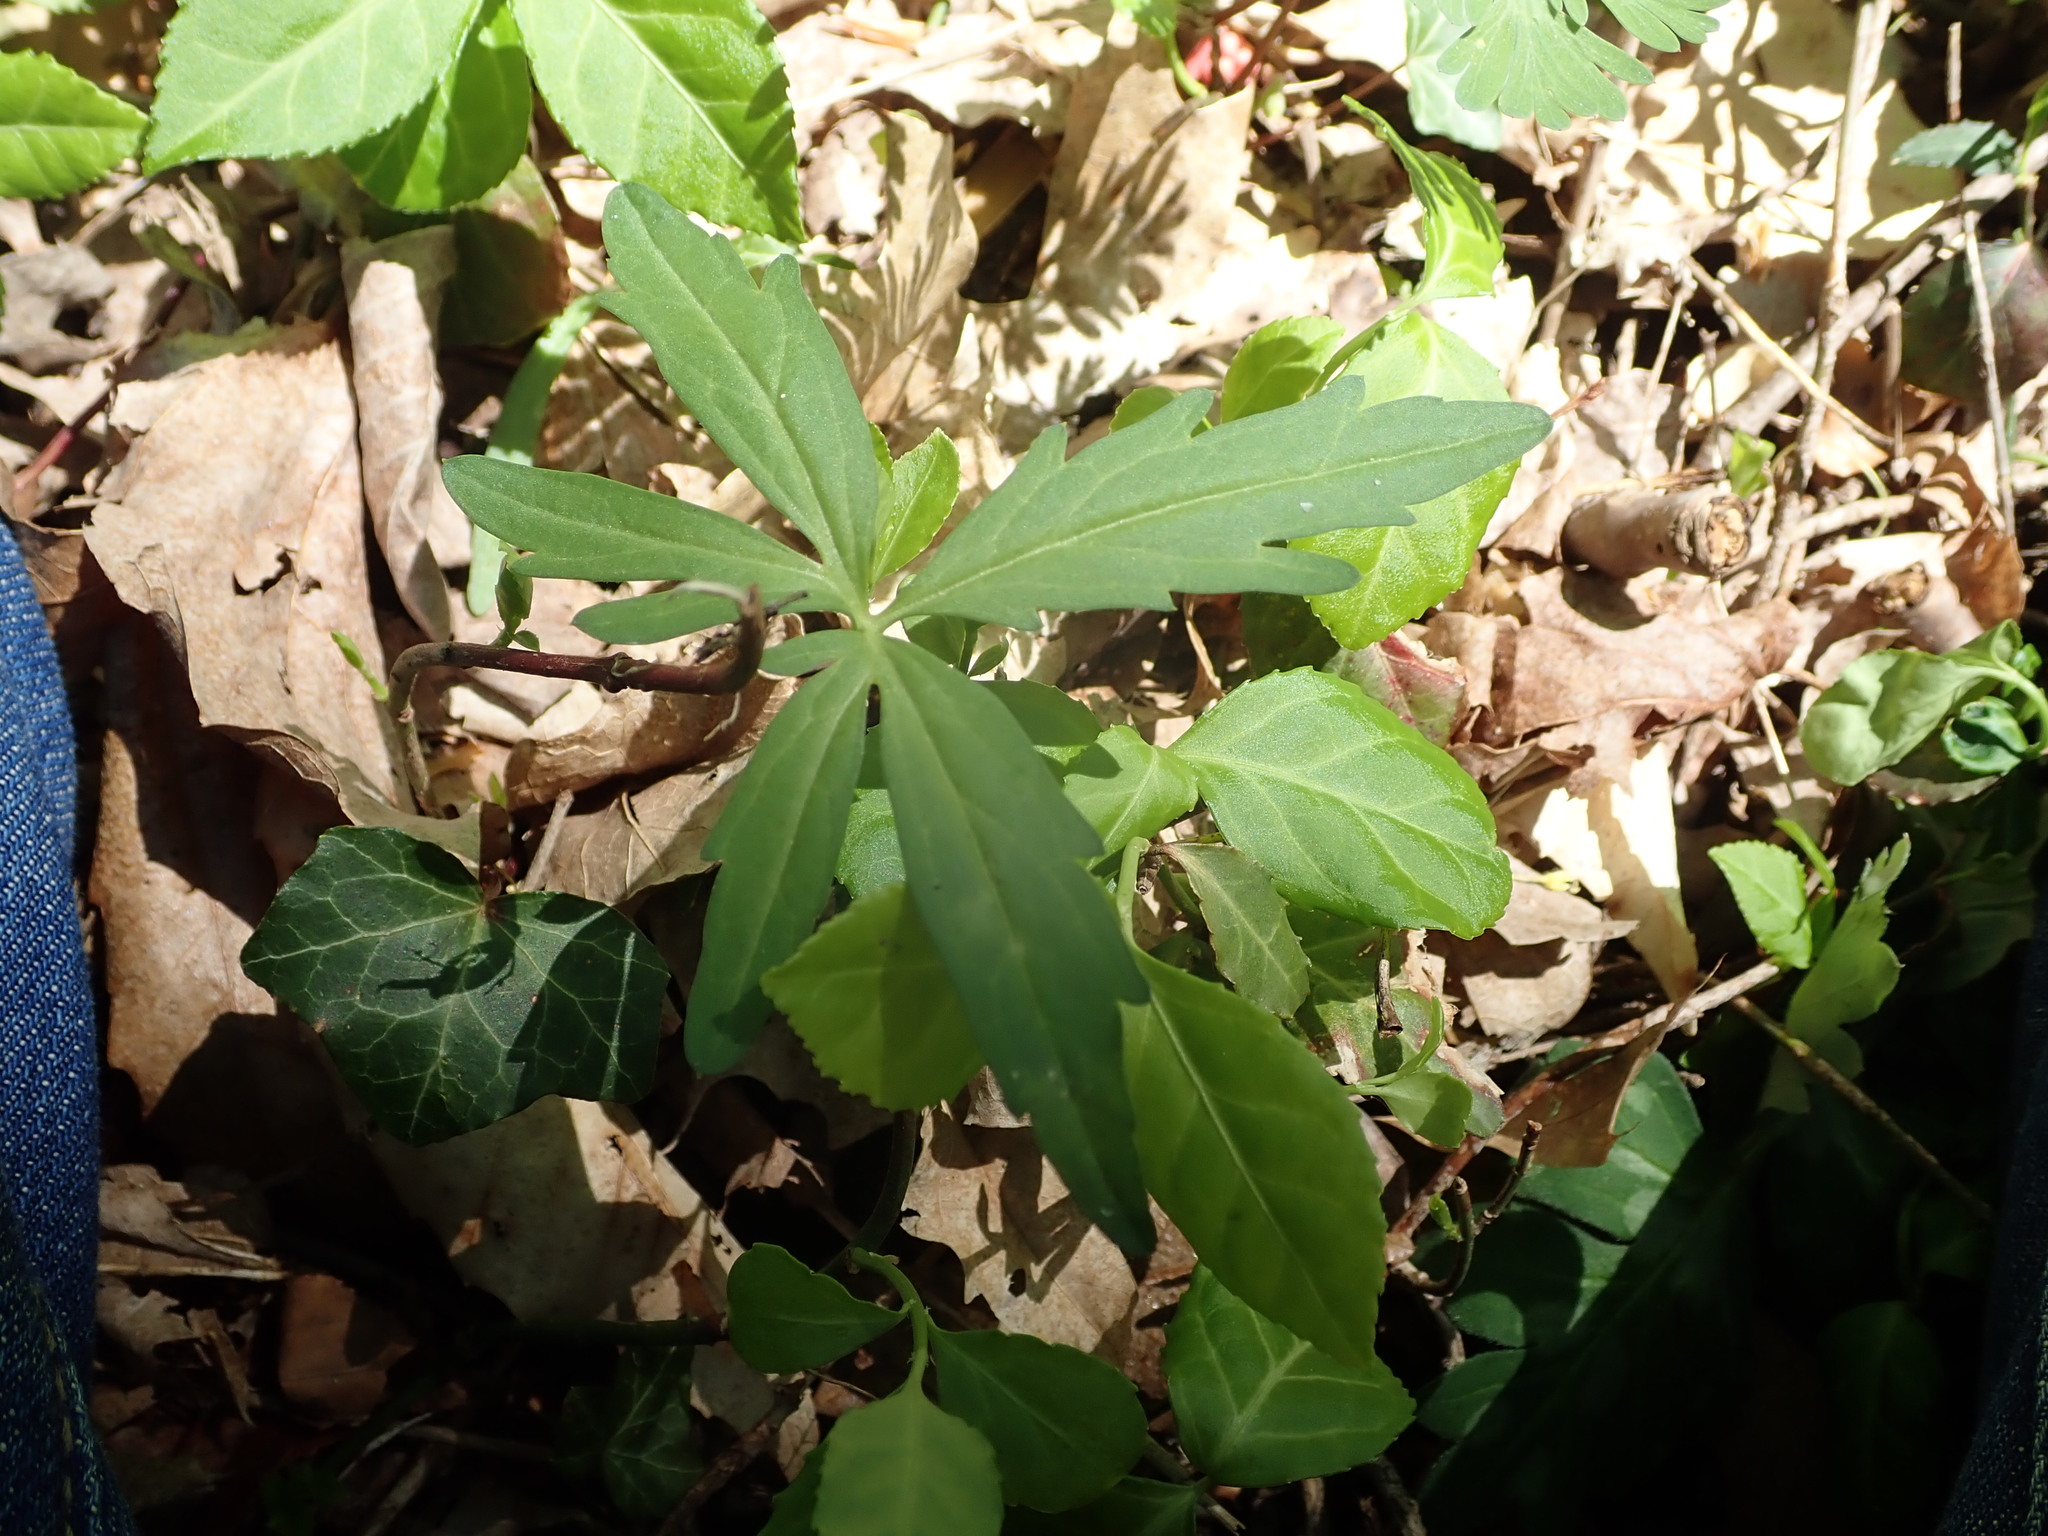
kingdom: Plantae
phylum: Tracheophyta
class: Magnoliopsida
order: Brassicales
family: Brassicaceae
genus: Cardamine
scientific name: Cardamine concatenata
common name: Cut-leaf toothcup
